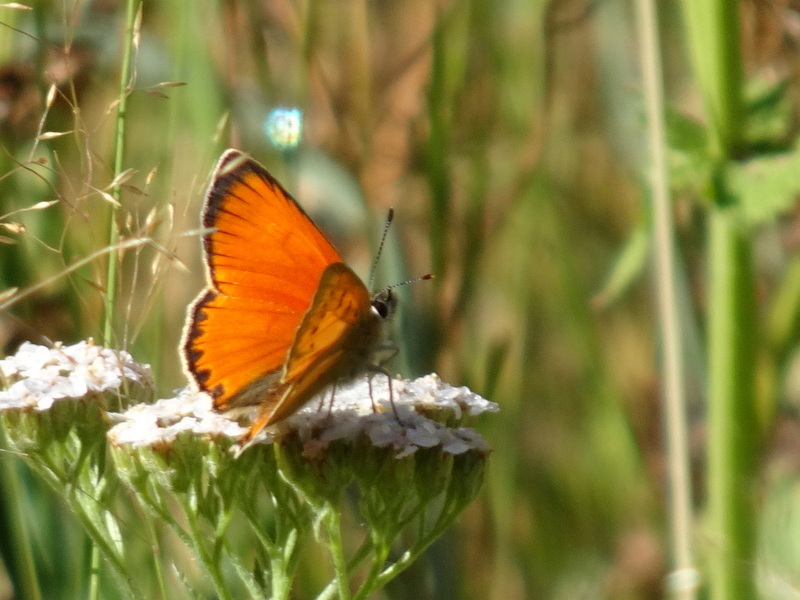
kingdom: Animalia
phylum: Arthropoda
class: Insecta
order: Lepidoptera
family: Lycaenidae
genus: Lycaena
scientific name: Lycaena virgaureae
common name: Scarce copper
